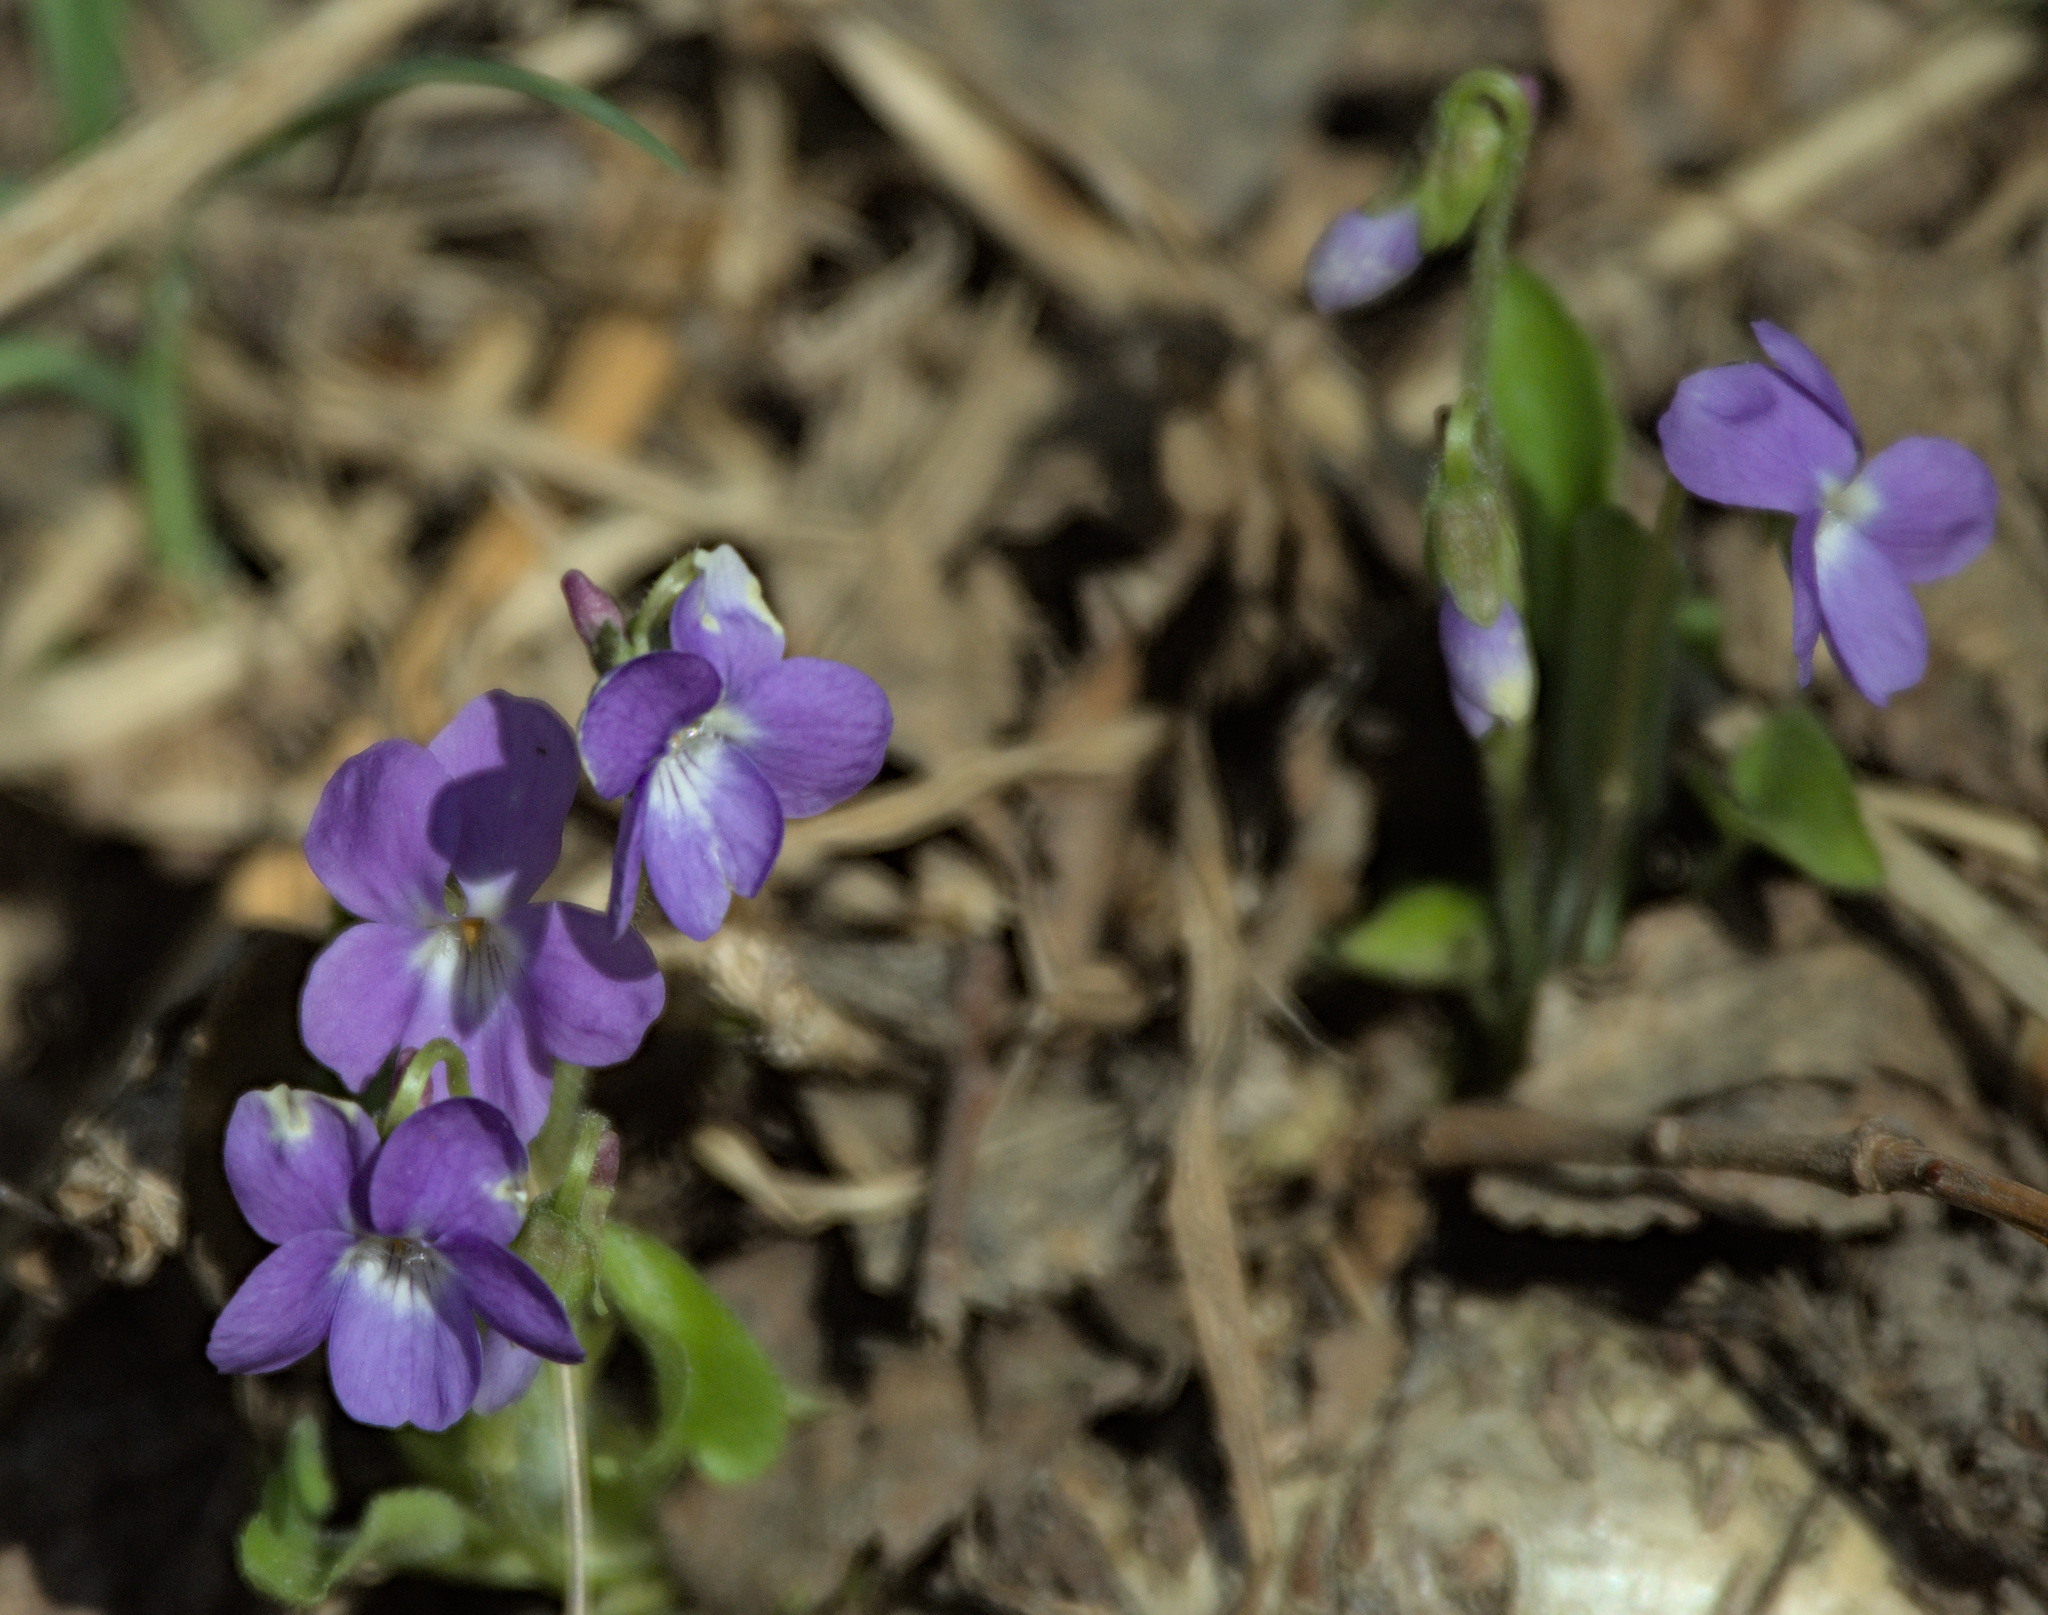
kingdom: Plantae
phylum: Tracheophyta
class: Magnoliopsida
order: Malpighiales
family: Violaceae
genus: Viola
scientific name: Viola hirta
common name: Hairy violet
